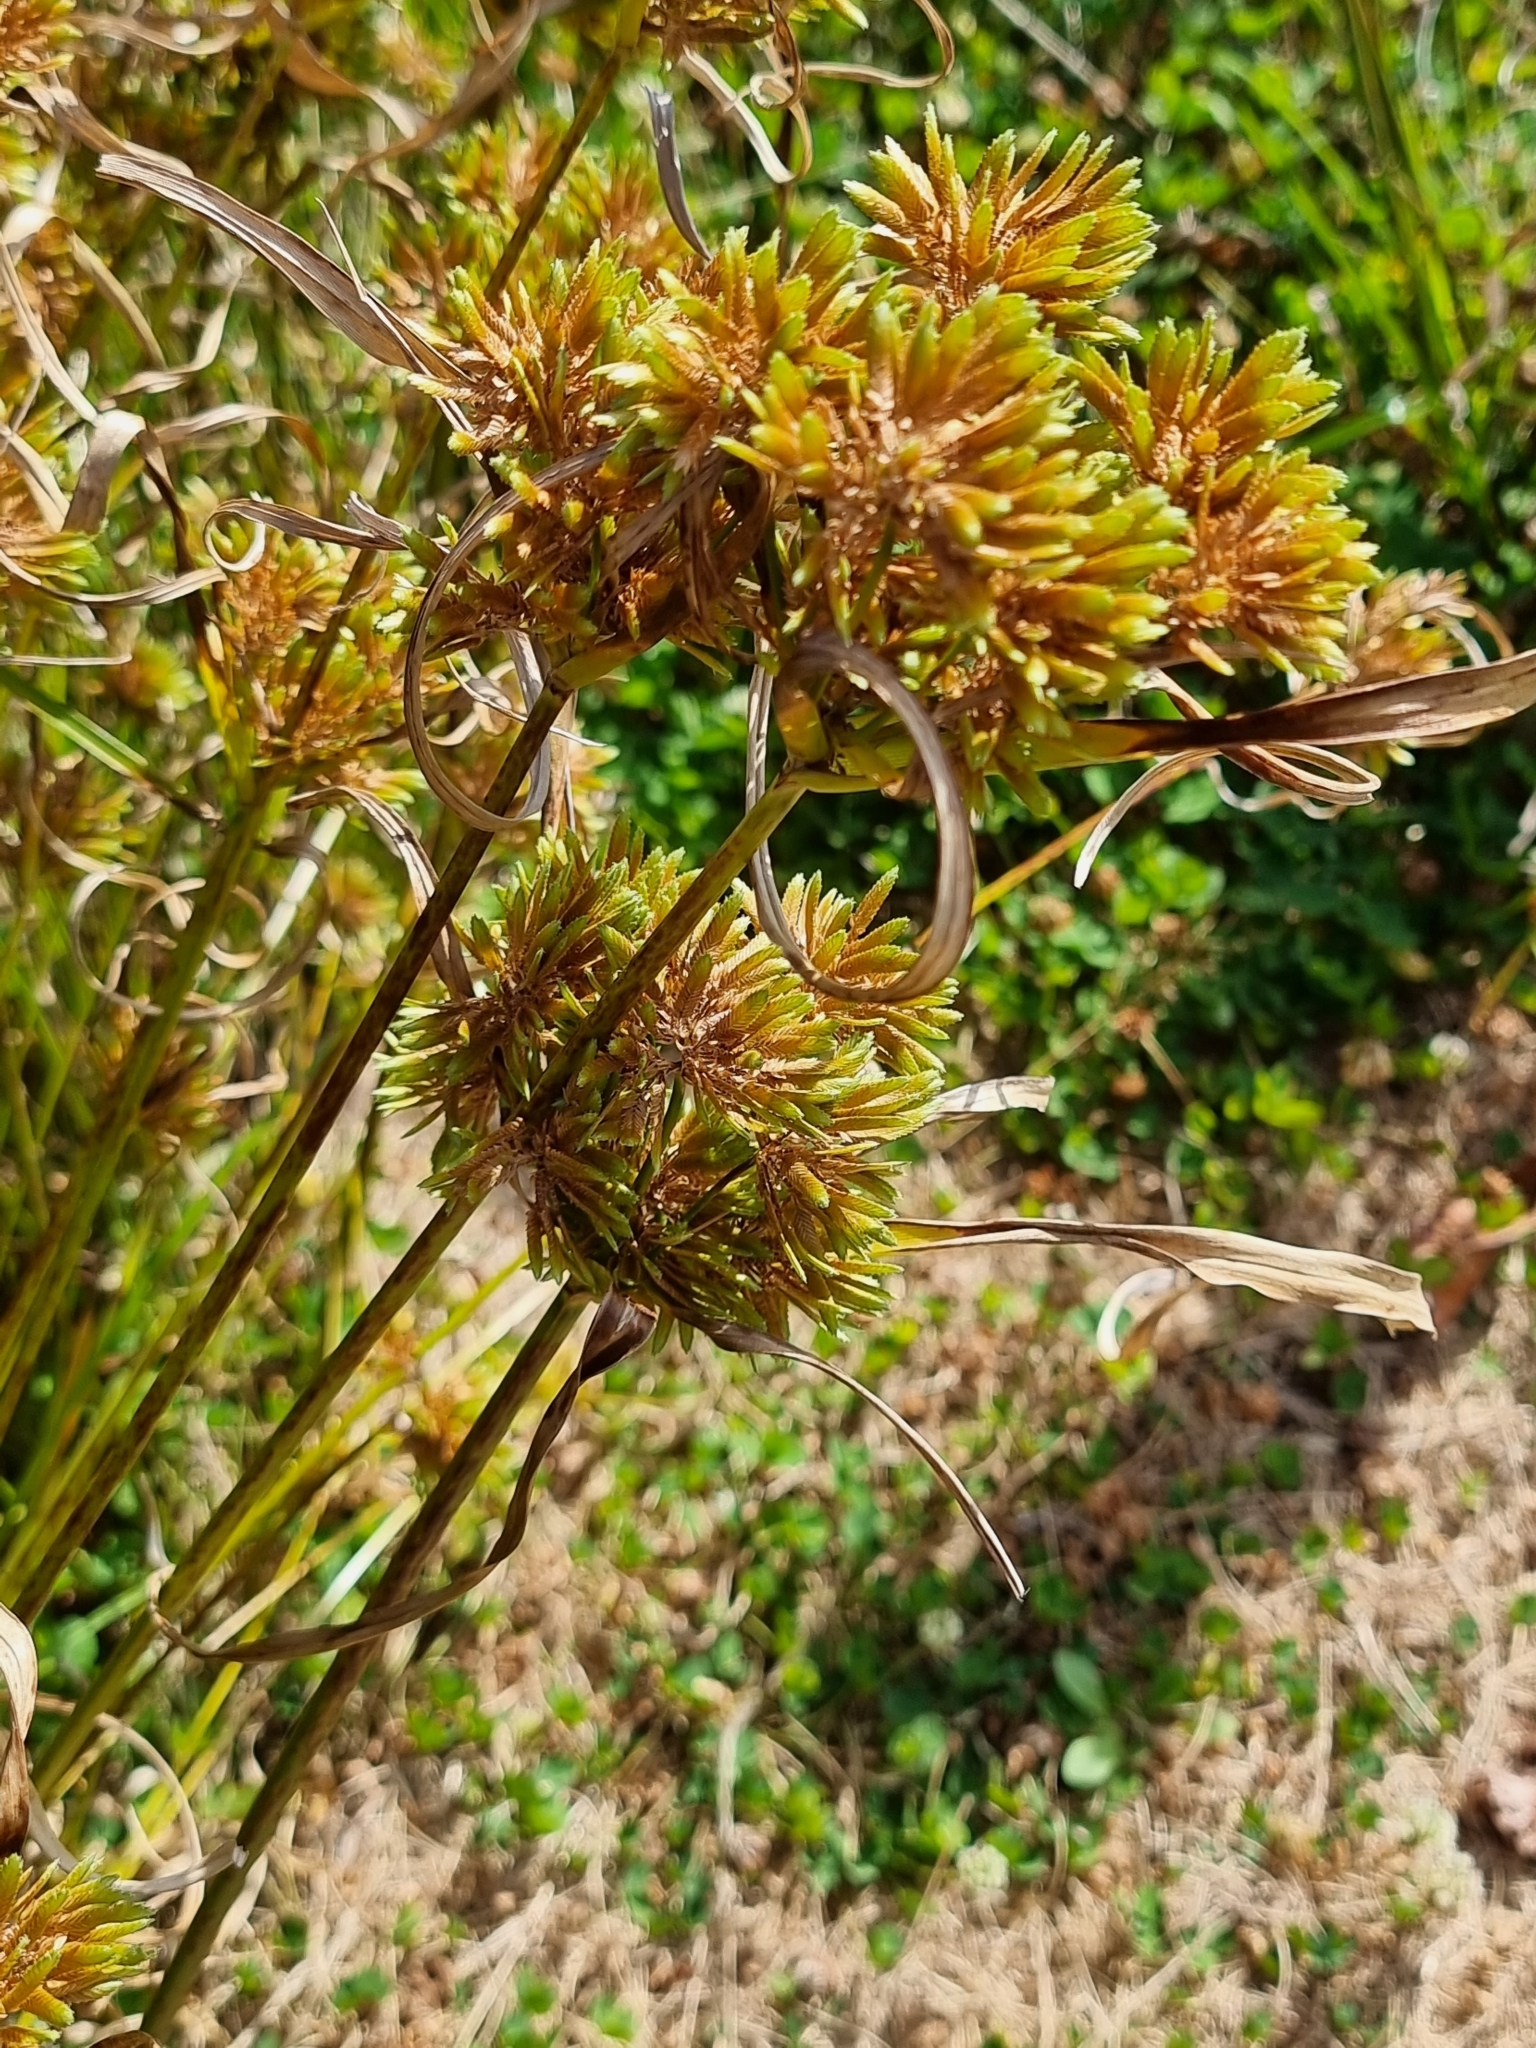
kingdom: Plantae
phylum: Tracheophyta
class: Liliopsida
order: Poales
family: Cyperaceae
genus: Cyperus
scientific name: Cyperus eragrostis
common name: Tall flatsedge
